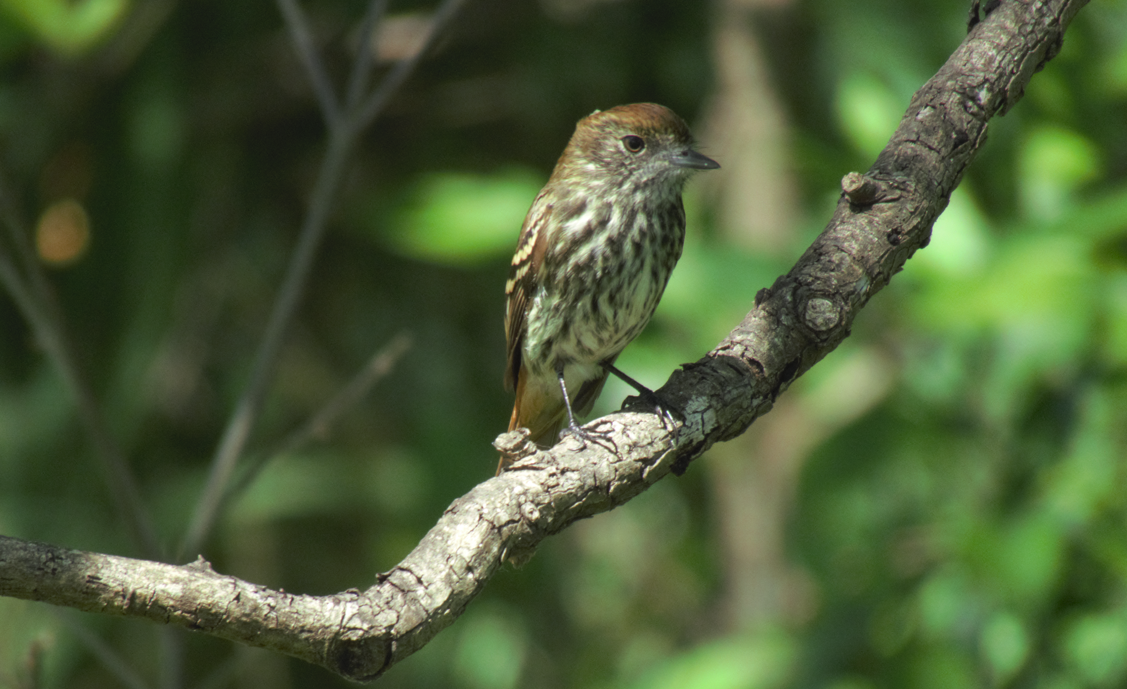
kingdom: Animalia
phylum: Chordata
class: Aves
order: Passeriformes
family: Tyrannidae
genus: Knipolegus
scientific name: Knipolegus cyanirostris
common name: Blue-billed black tyrant
